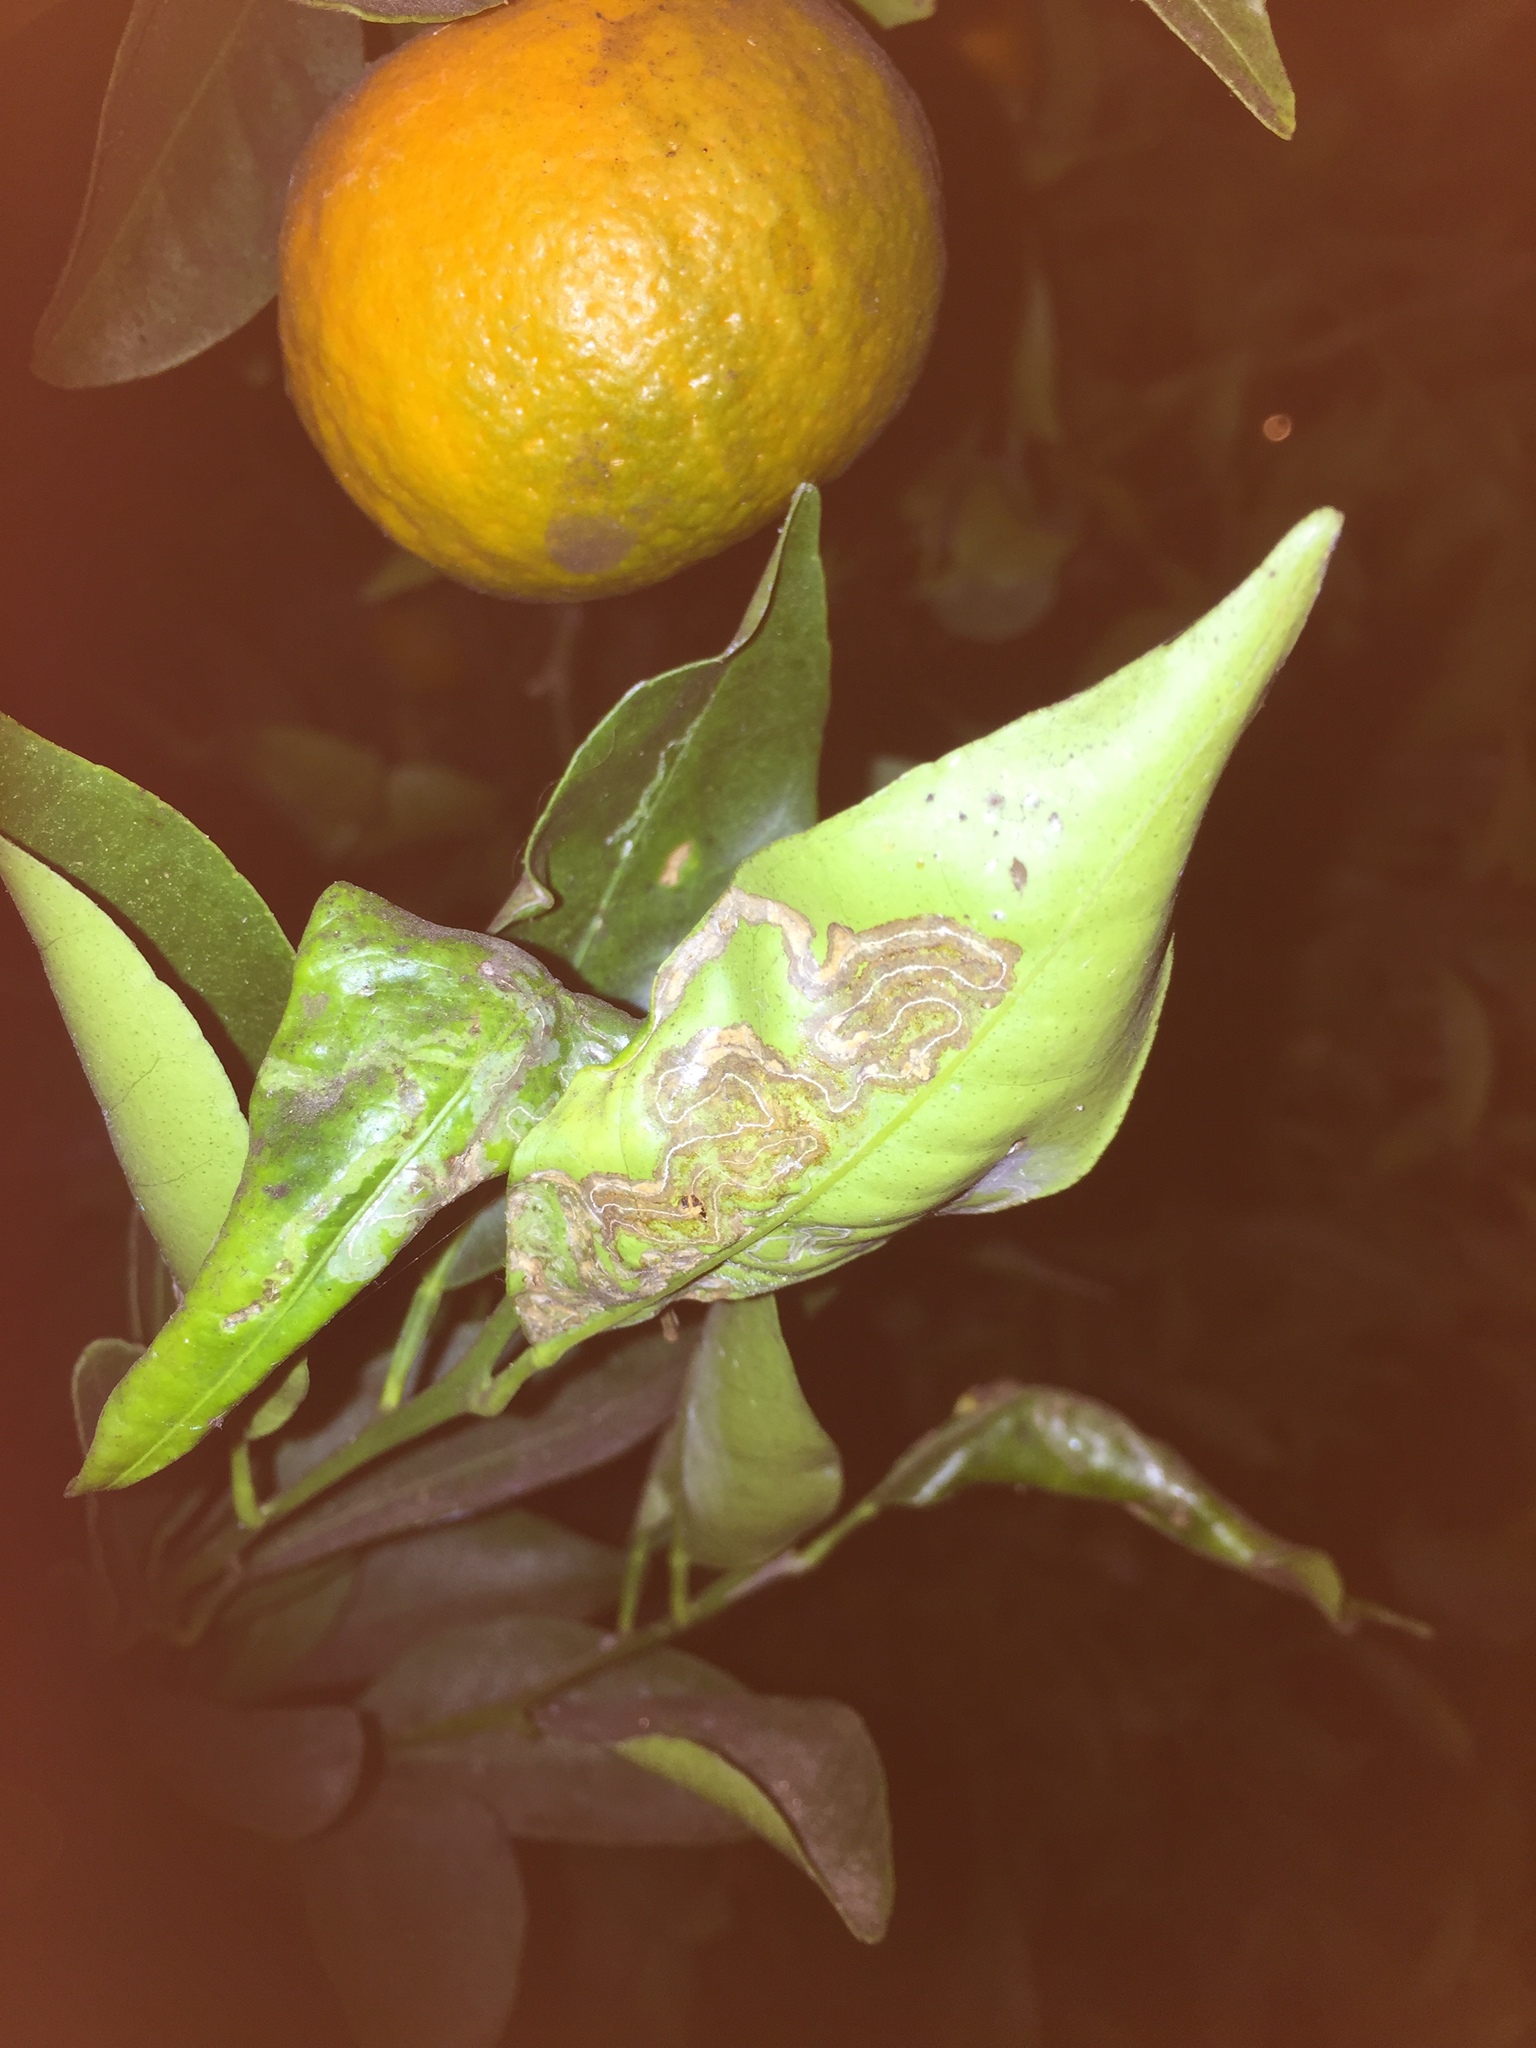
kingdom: Animalia
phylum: Arthropoda
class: Insecta
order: Lepidoptera
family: Gracillariidae
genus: Phyllocnistis
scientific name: Phyllocnistis citrella
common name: Citrus leafminer
